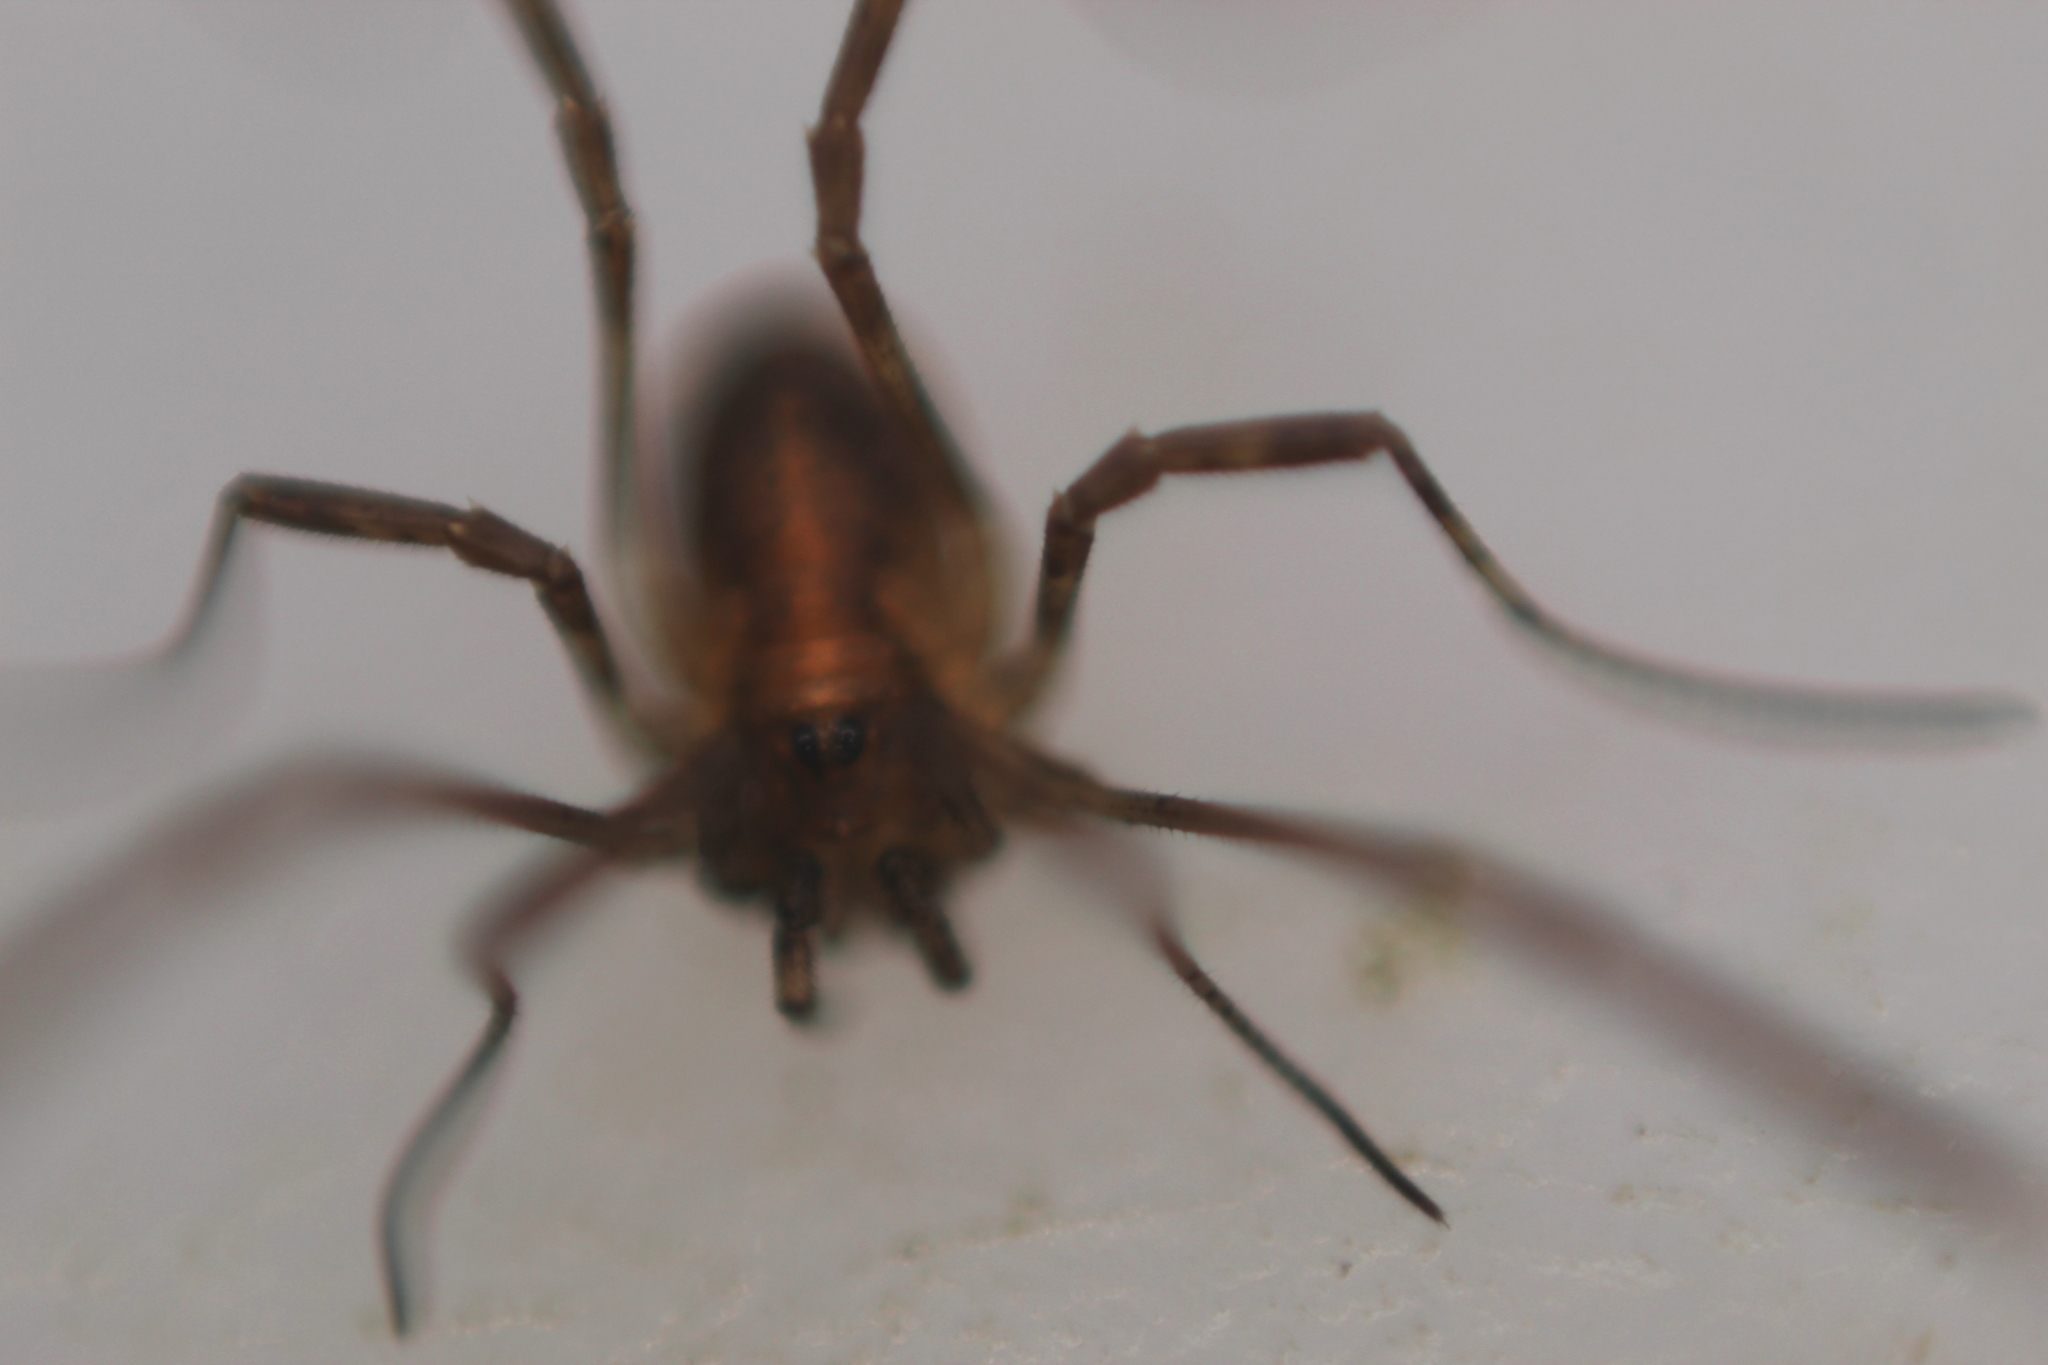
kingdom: Animalia
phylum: Arthropoda
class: Arachnida
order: Opiliones
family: Phalangiidae
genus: Paroligolophus
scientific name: Paroligolophus agrestis
